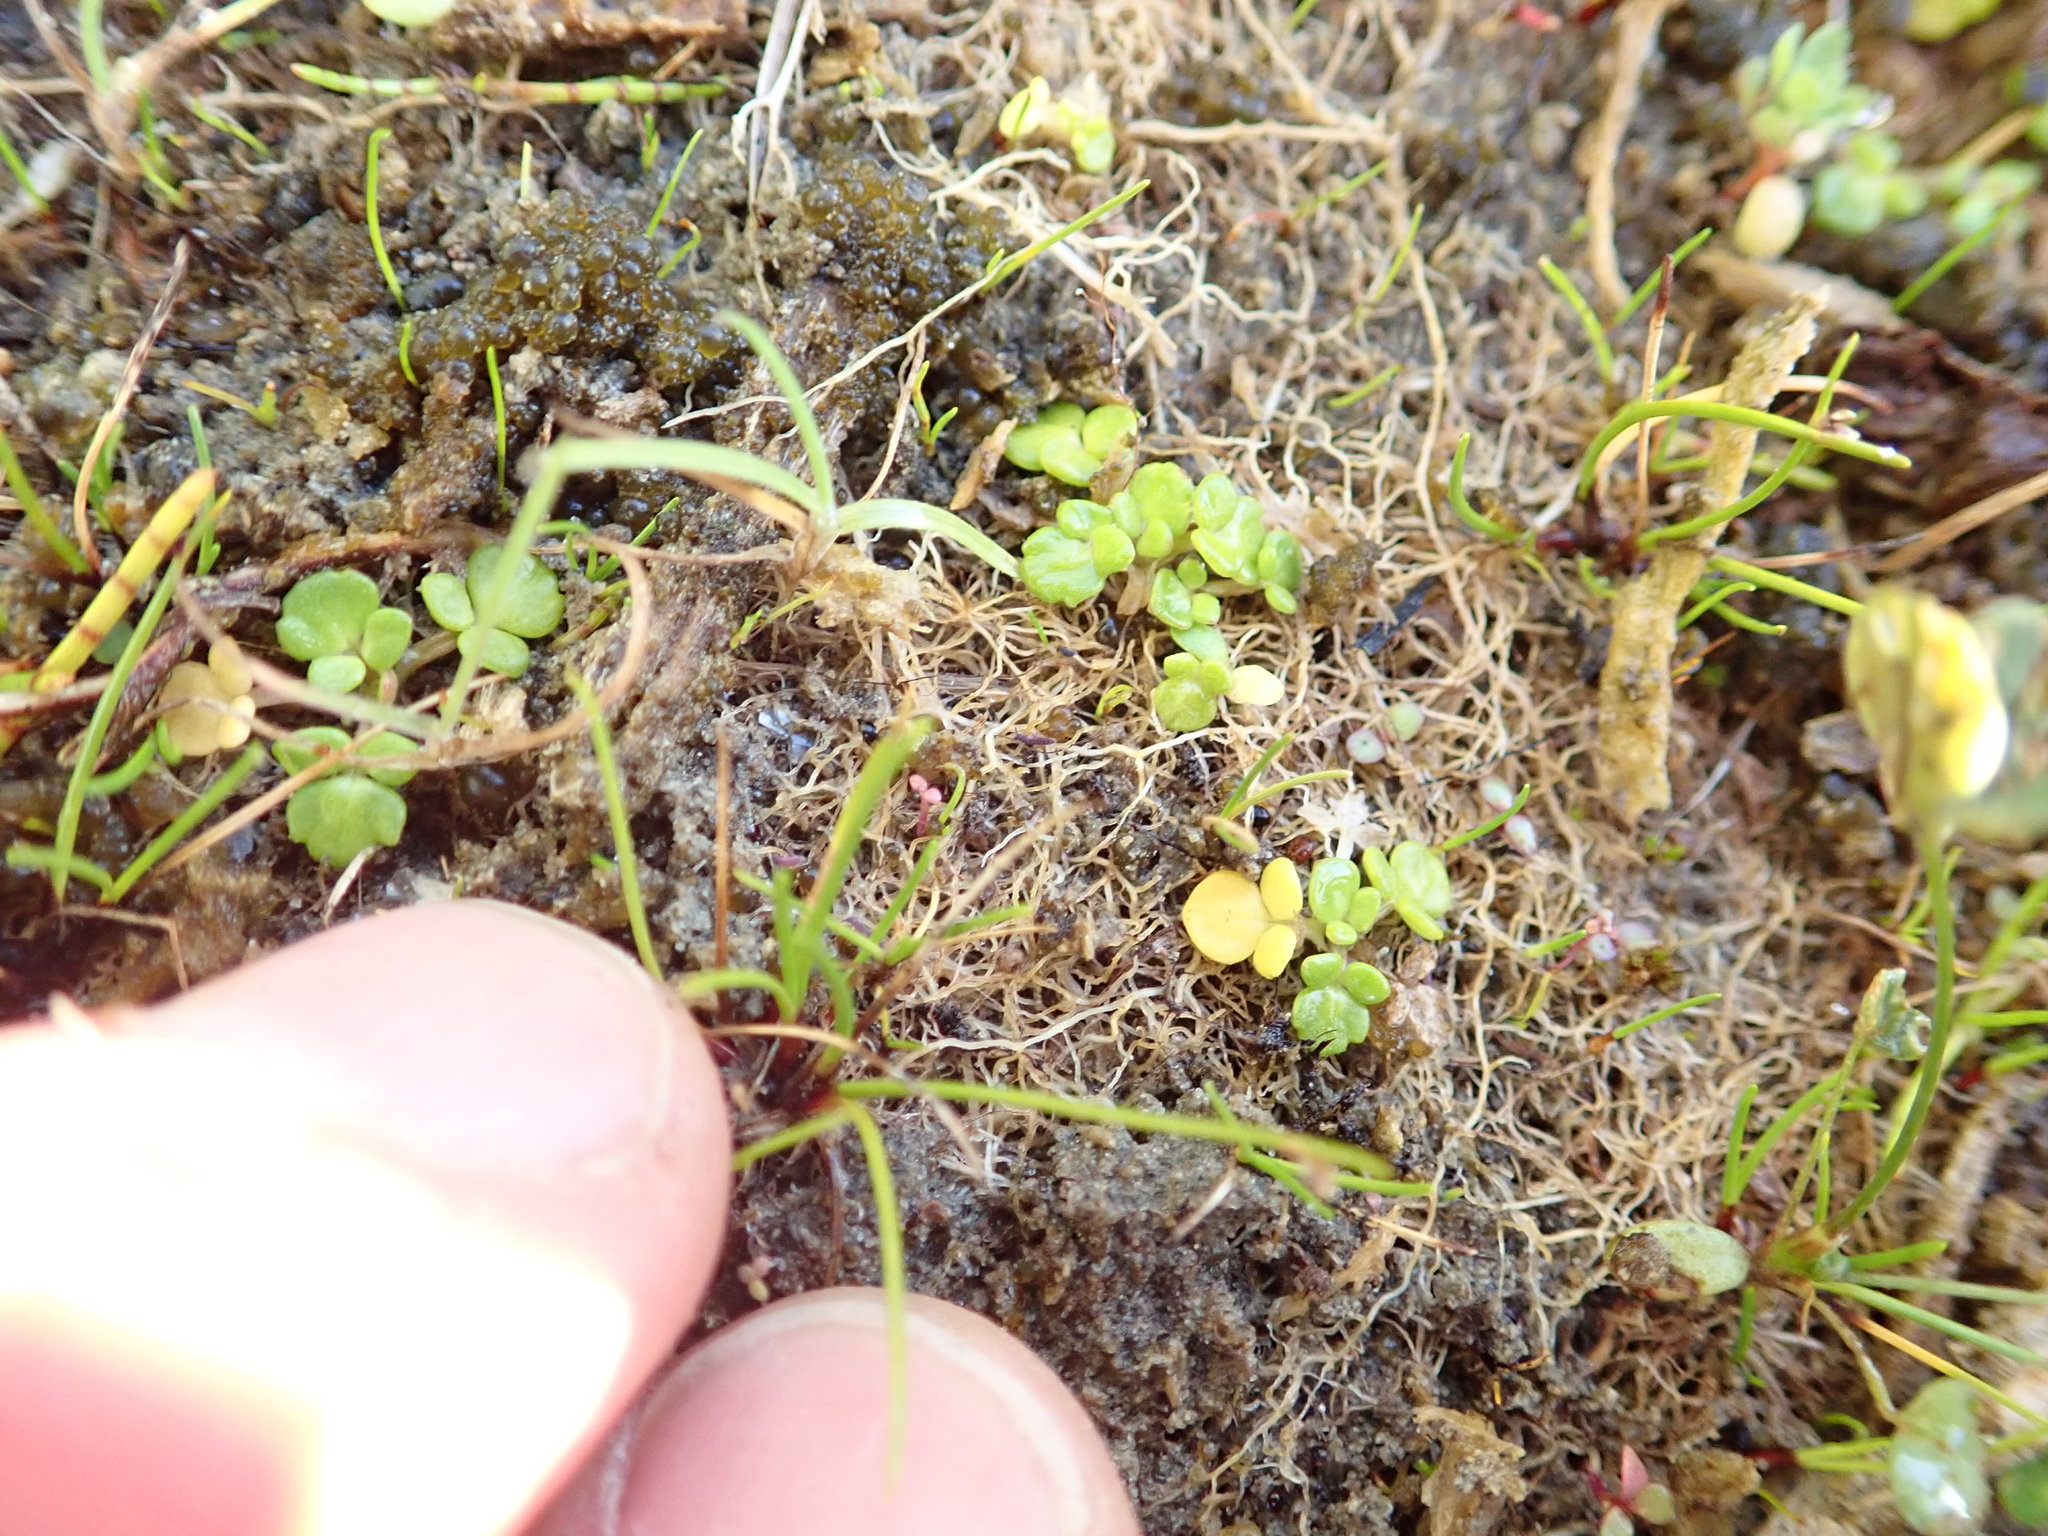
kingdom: Plantae
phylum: Tracheophyta
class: Magnoliopsida
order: Ranunculales
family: Ranunculaceae
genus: Ranunculus
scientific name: Ranunculus acaulis
